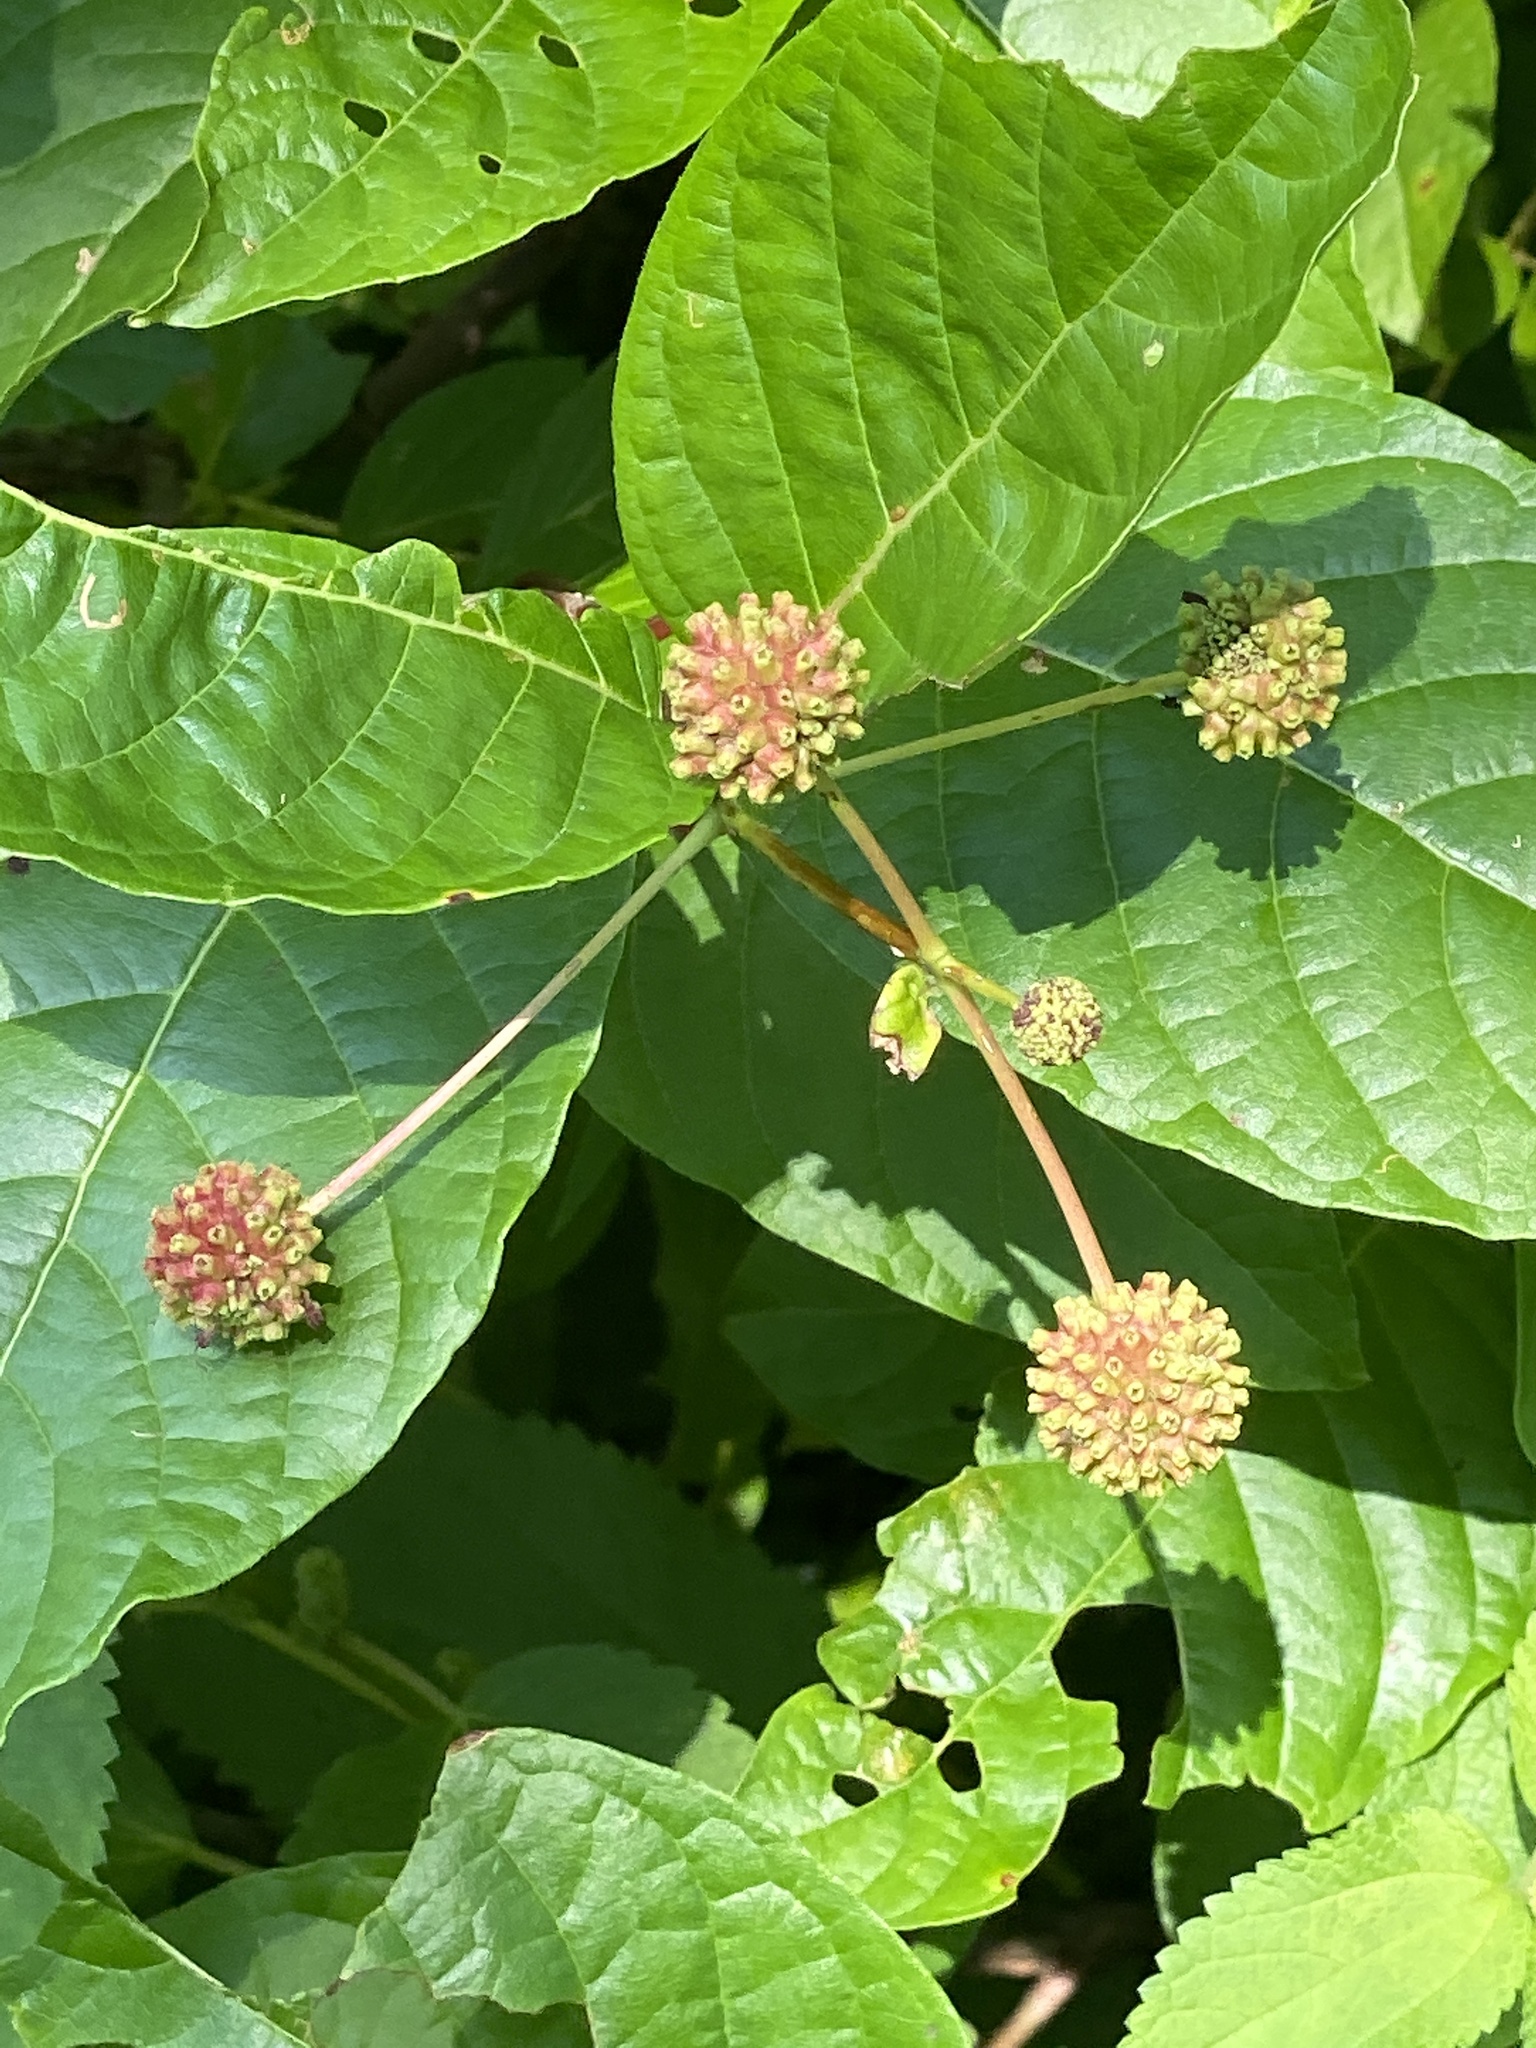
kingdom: Plantae
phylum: Tracheophyta
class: Magnoliopsida
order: Gentianales
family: Rubiaceae
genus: Cephalanthus
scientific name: Cephalanthus occidentalis
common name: Button-willow
